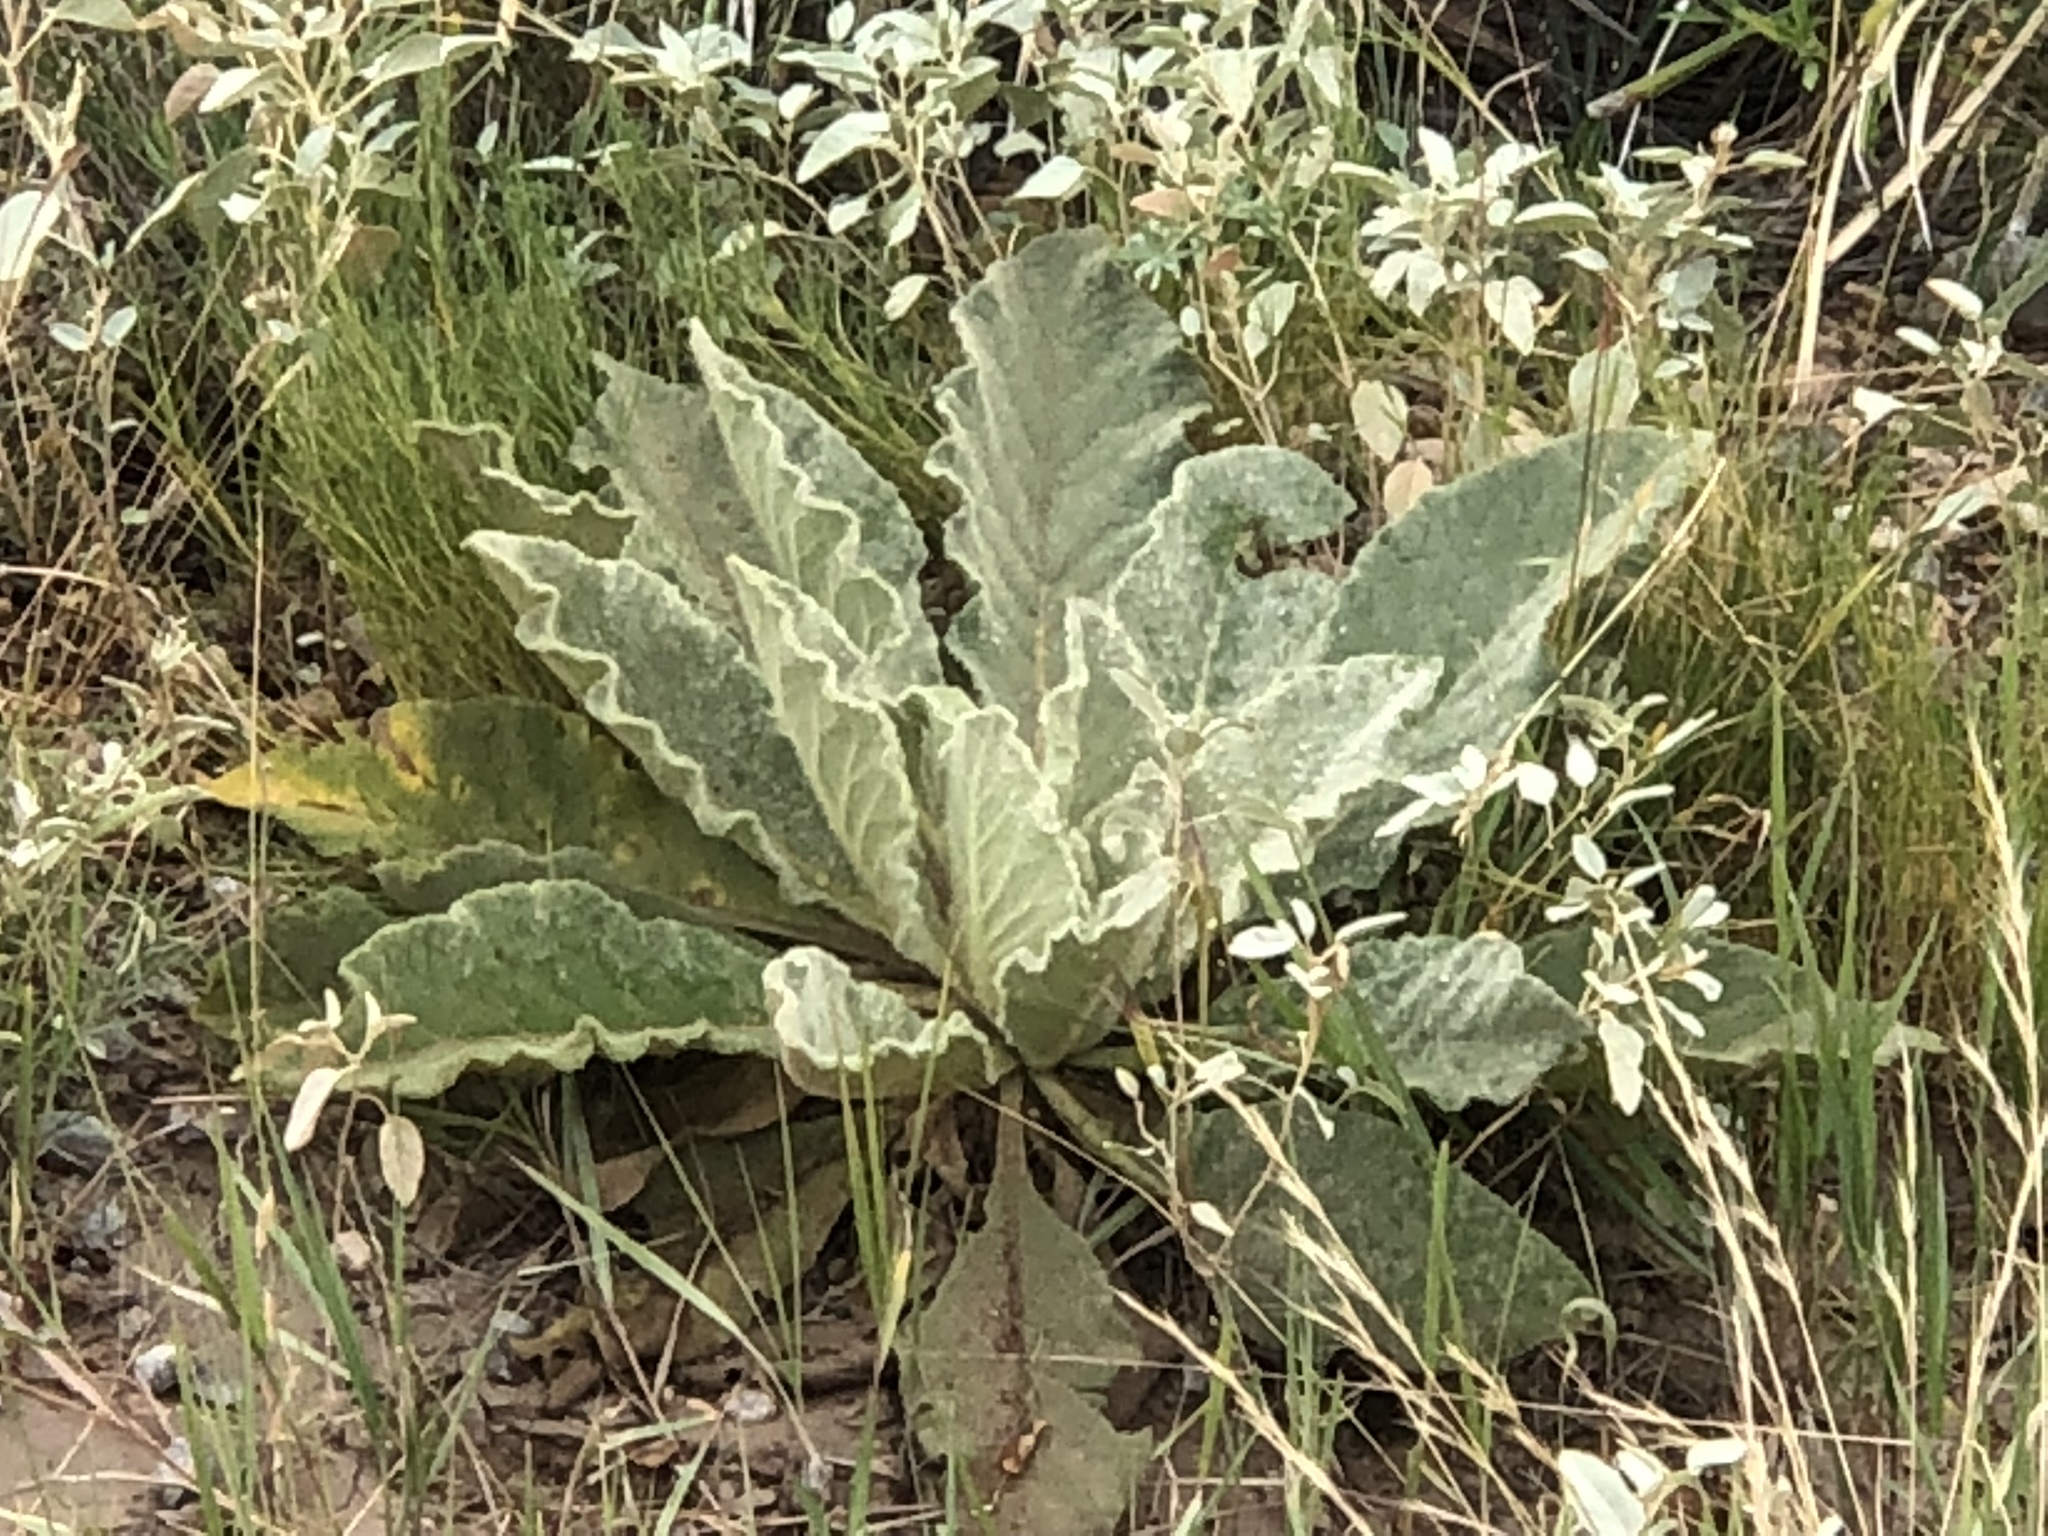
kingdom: Plantae
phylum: Tracheophyta
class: Magnoliopsida
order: Lamiales
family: Scrophulariaceae
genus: Verbascum
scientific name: Verbascum thapsus
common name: Common mullein
